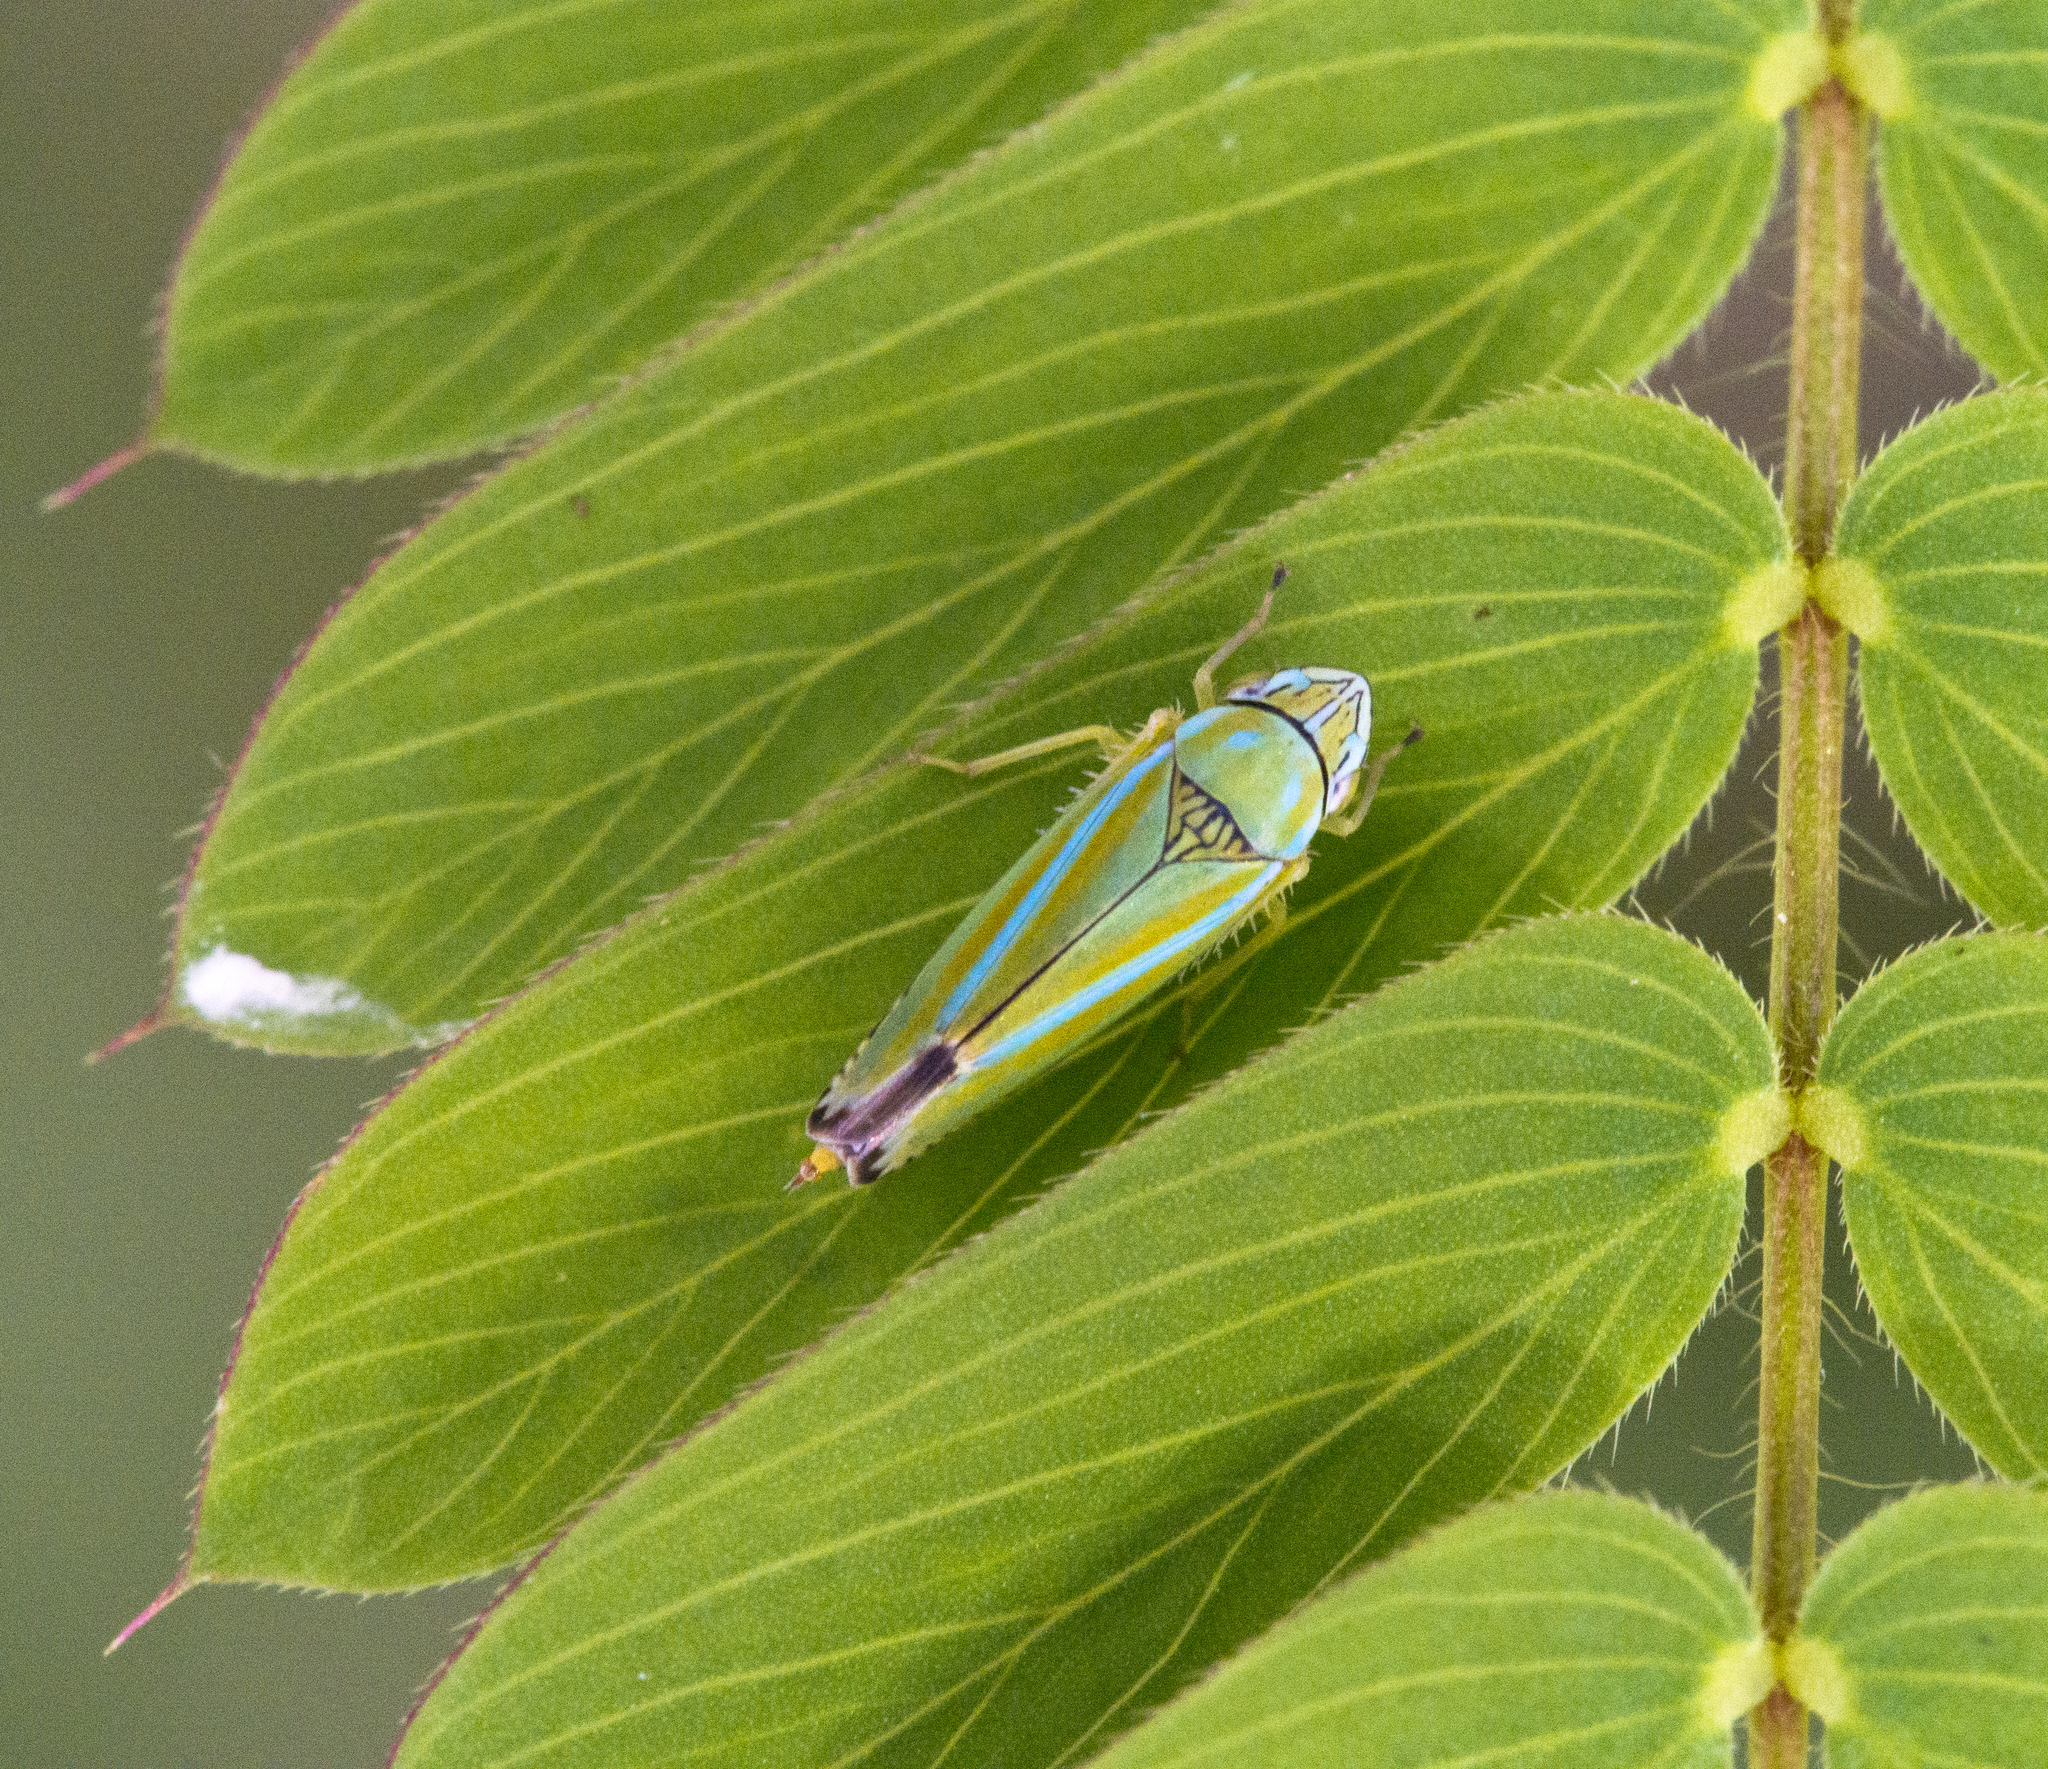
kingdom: Animalia
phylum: Arthropoda
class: Insecta
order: Hemiptera
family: Cicadellidae
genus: Graphocephala
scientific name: Graphocephala versuta
